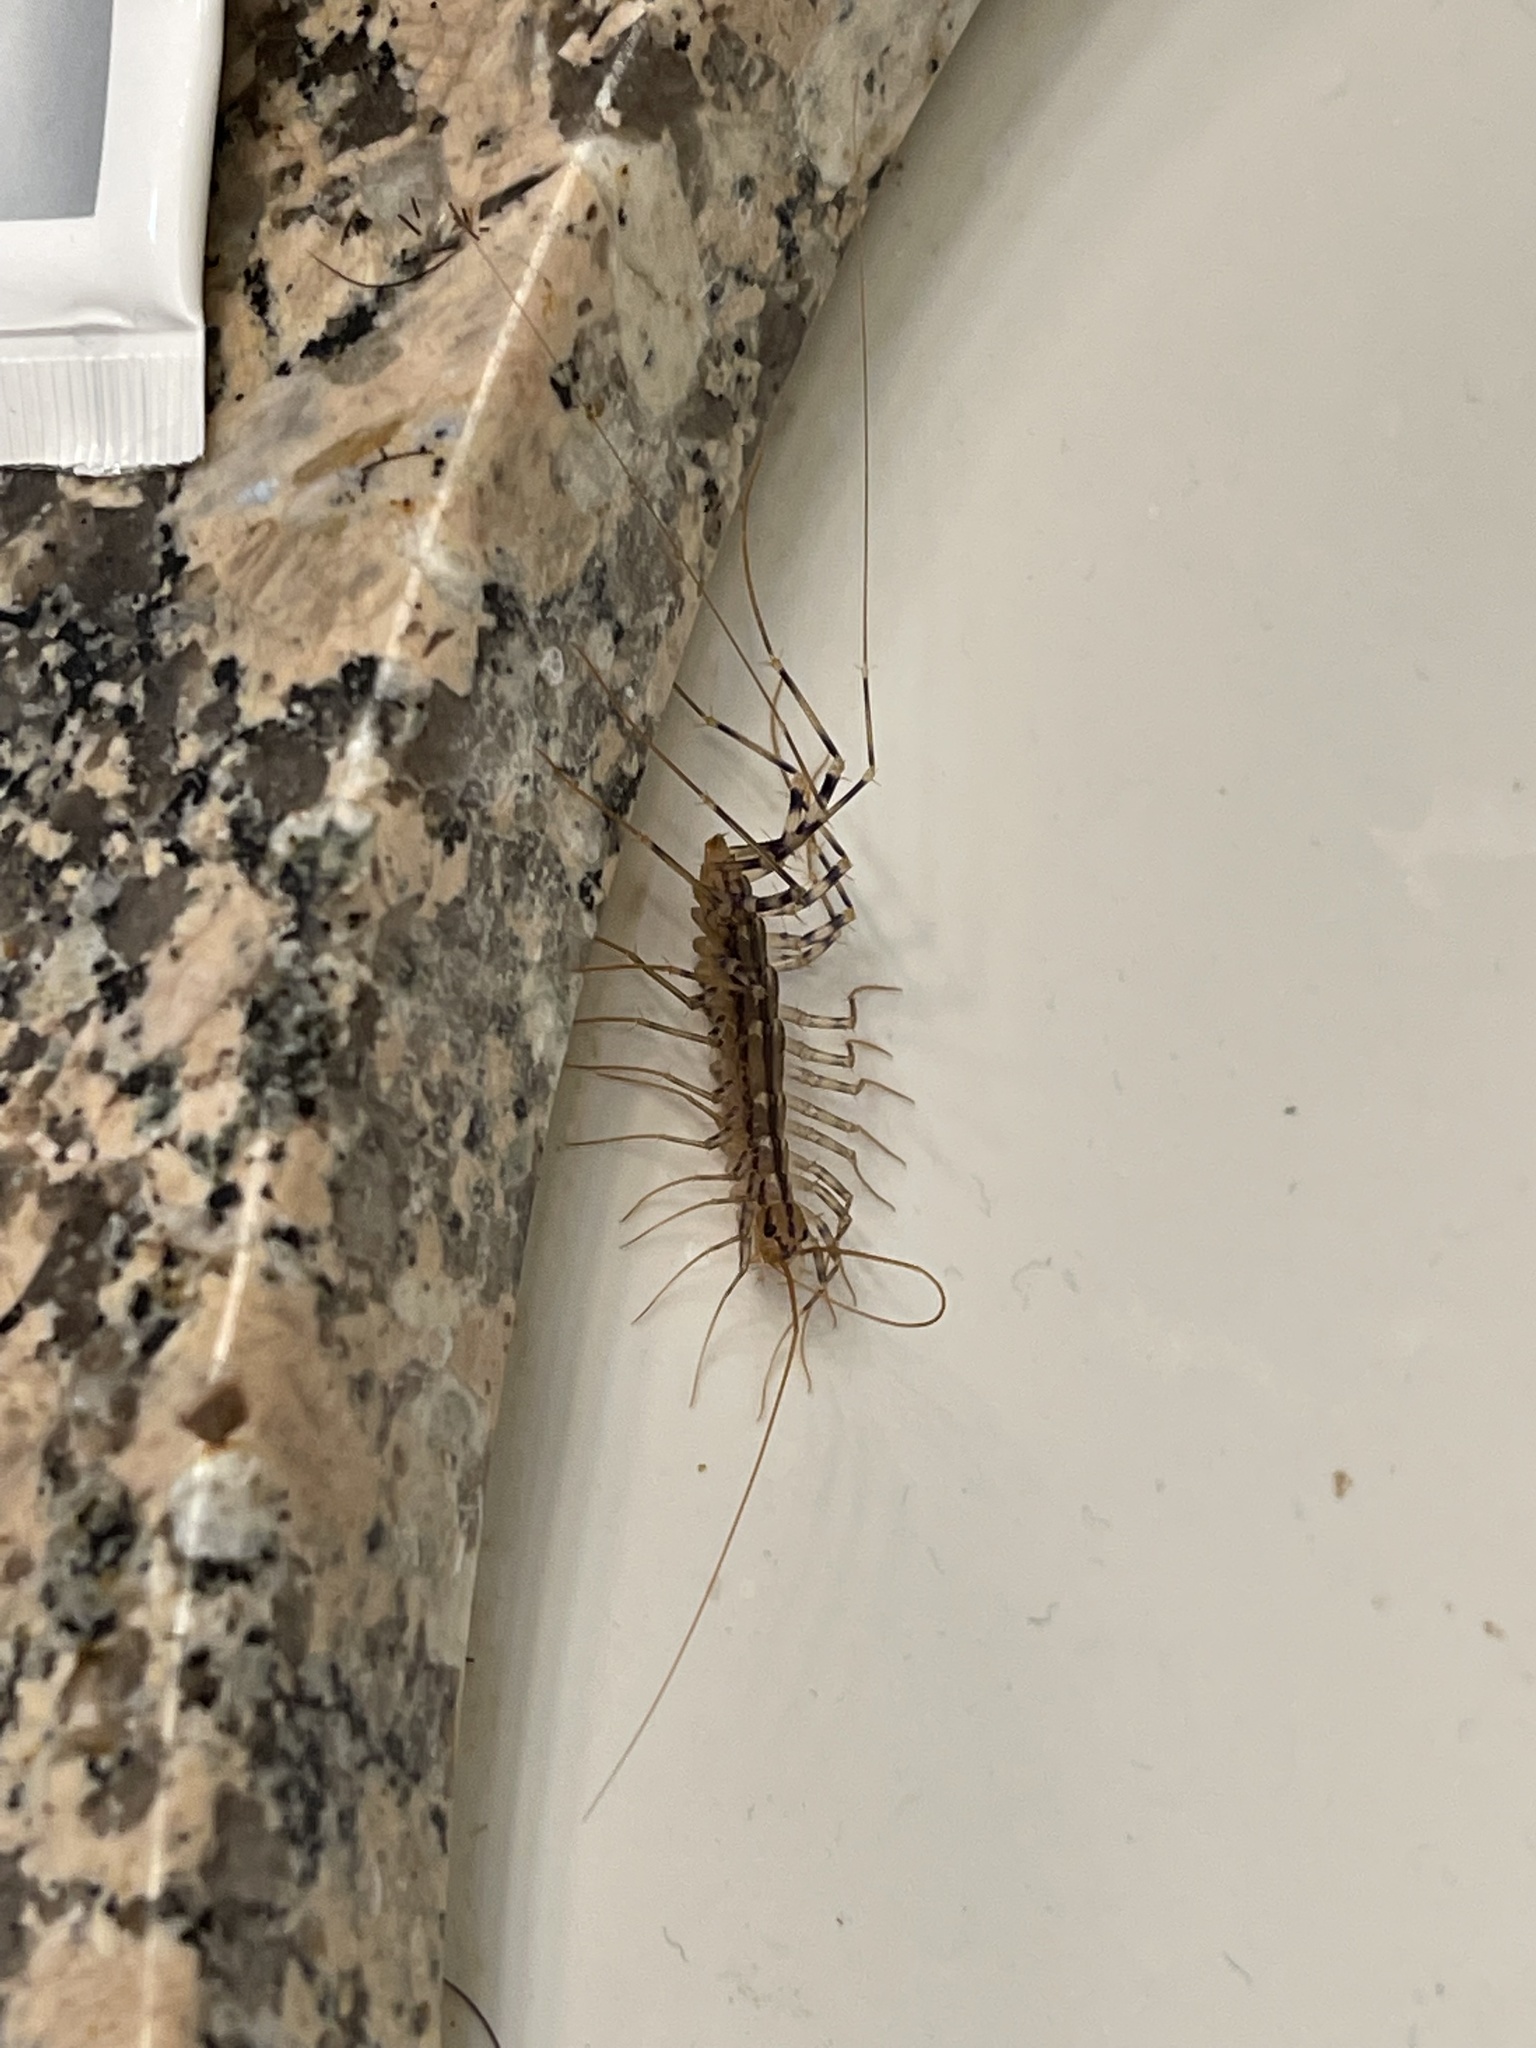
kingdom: Animalia
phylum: Arthropoda
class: Chilopoda
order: Scutigeromorpha
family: Scutigeridae
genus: Scutigera
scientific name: Scutigera coleoptrata
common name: House centipede
